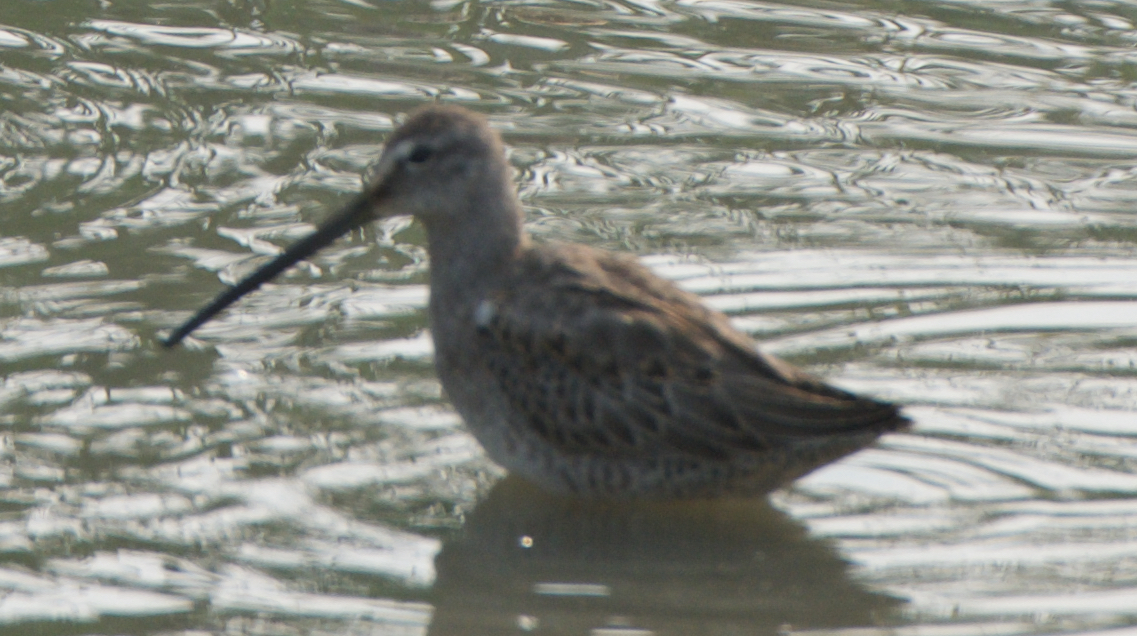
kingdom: Animalia
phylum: Chordata
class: Aves
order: Charadriiformes
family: Scolopacidae
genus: Limnodromus
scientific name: Limnodromus scolopaceus
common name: Long-billed dowitcher
